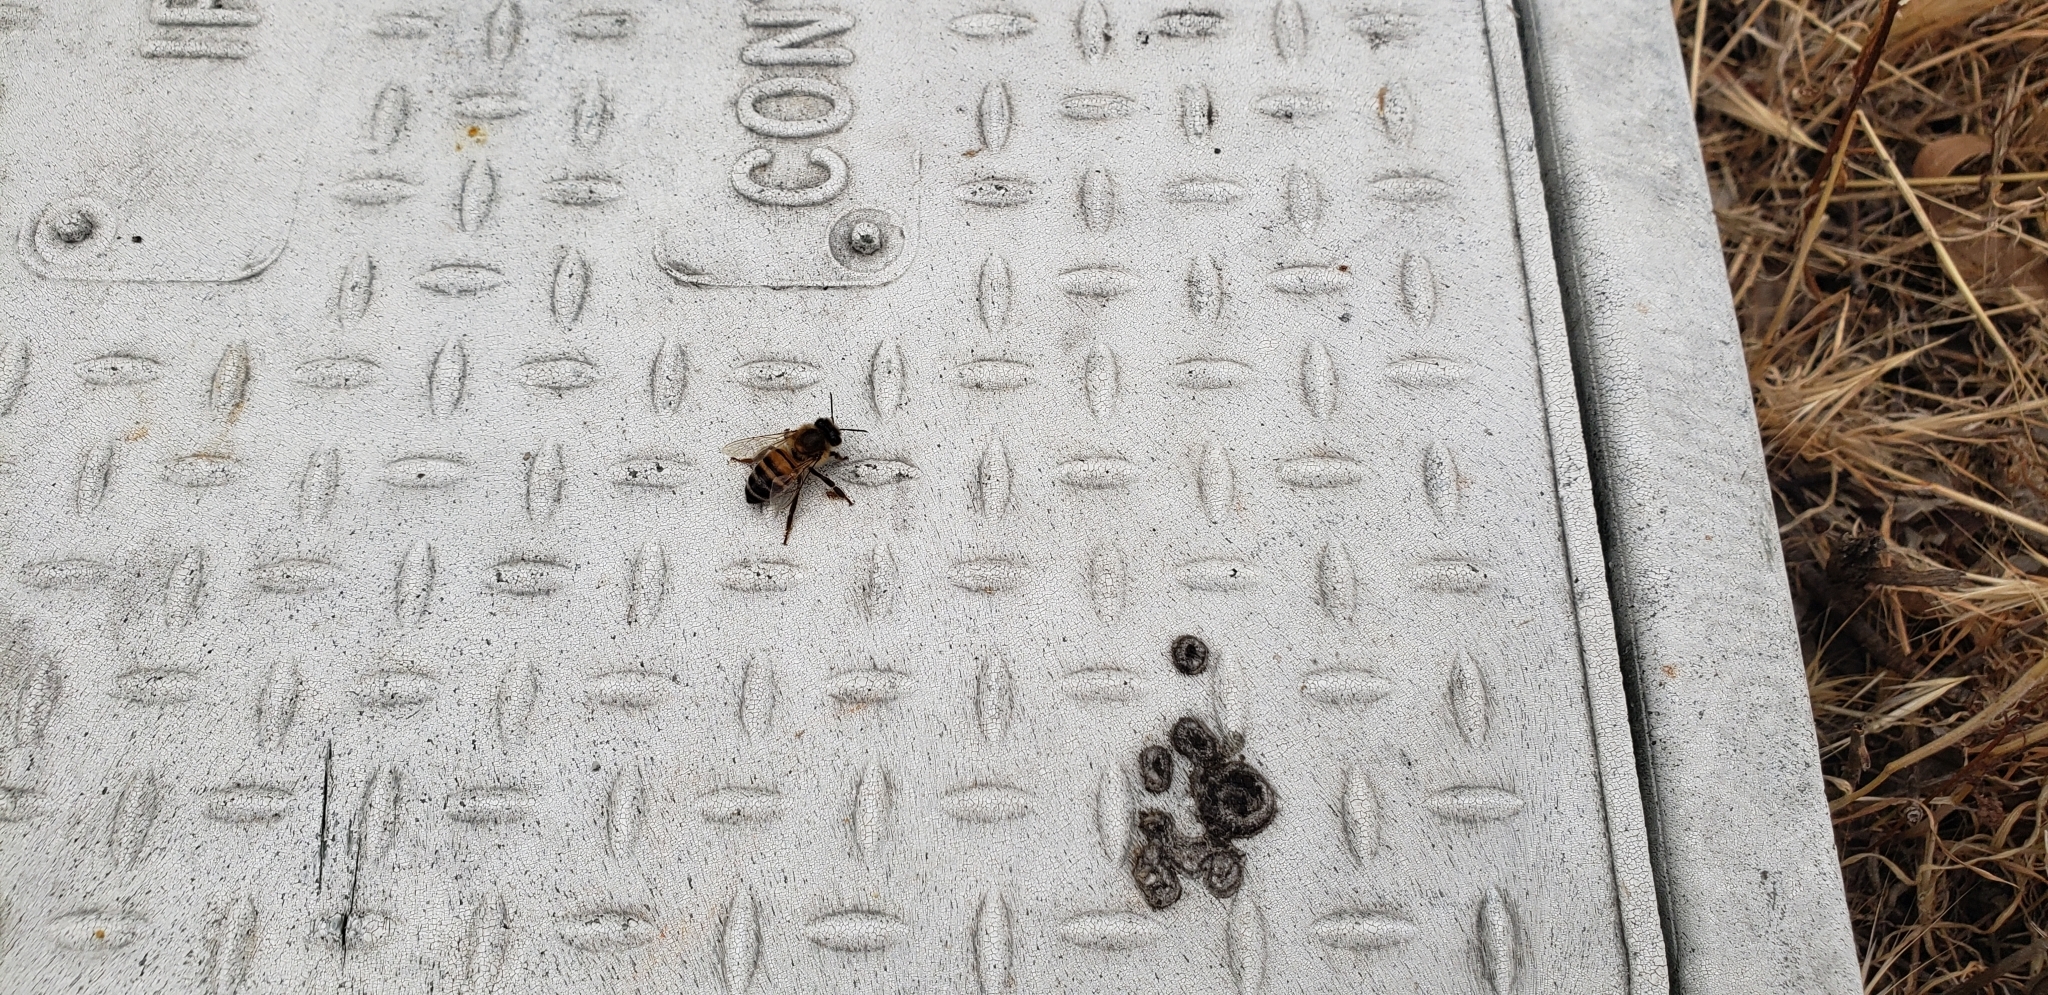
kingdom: Animalia
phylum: Arthropoda
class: Insecta
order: Hymenoptera
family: Apidae
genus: Apis
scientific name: Apis mellifera
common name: Honey bee
